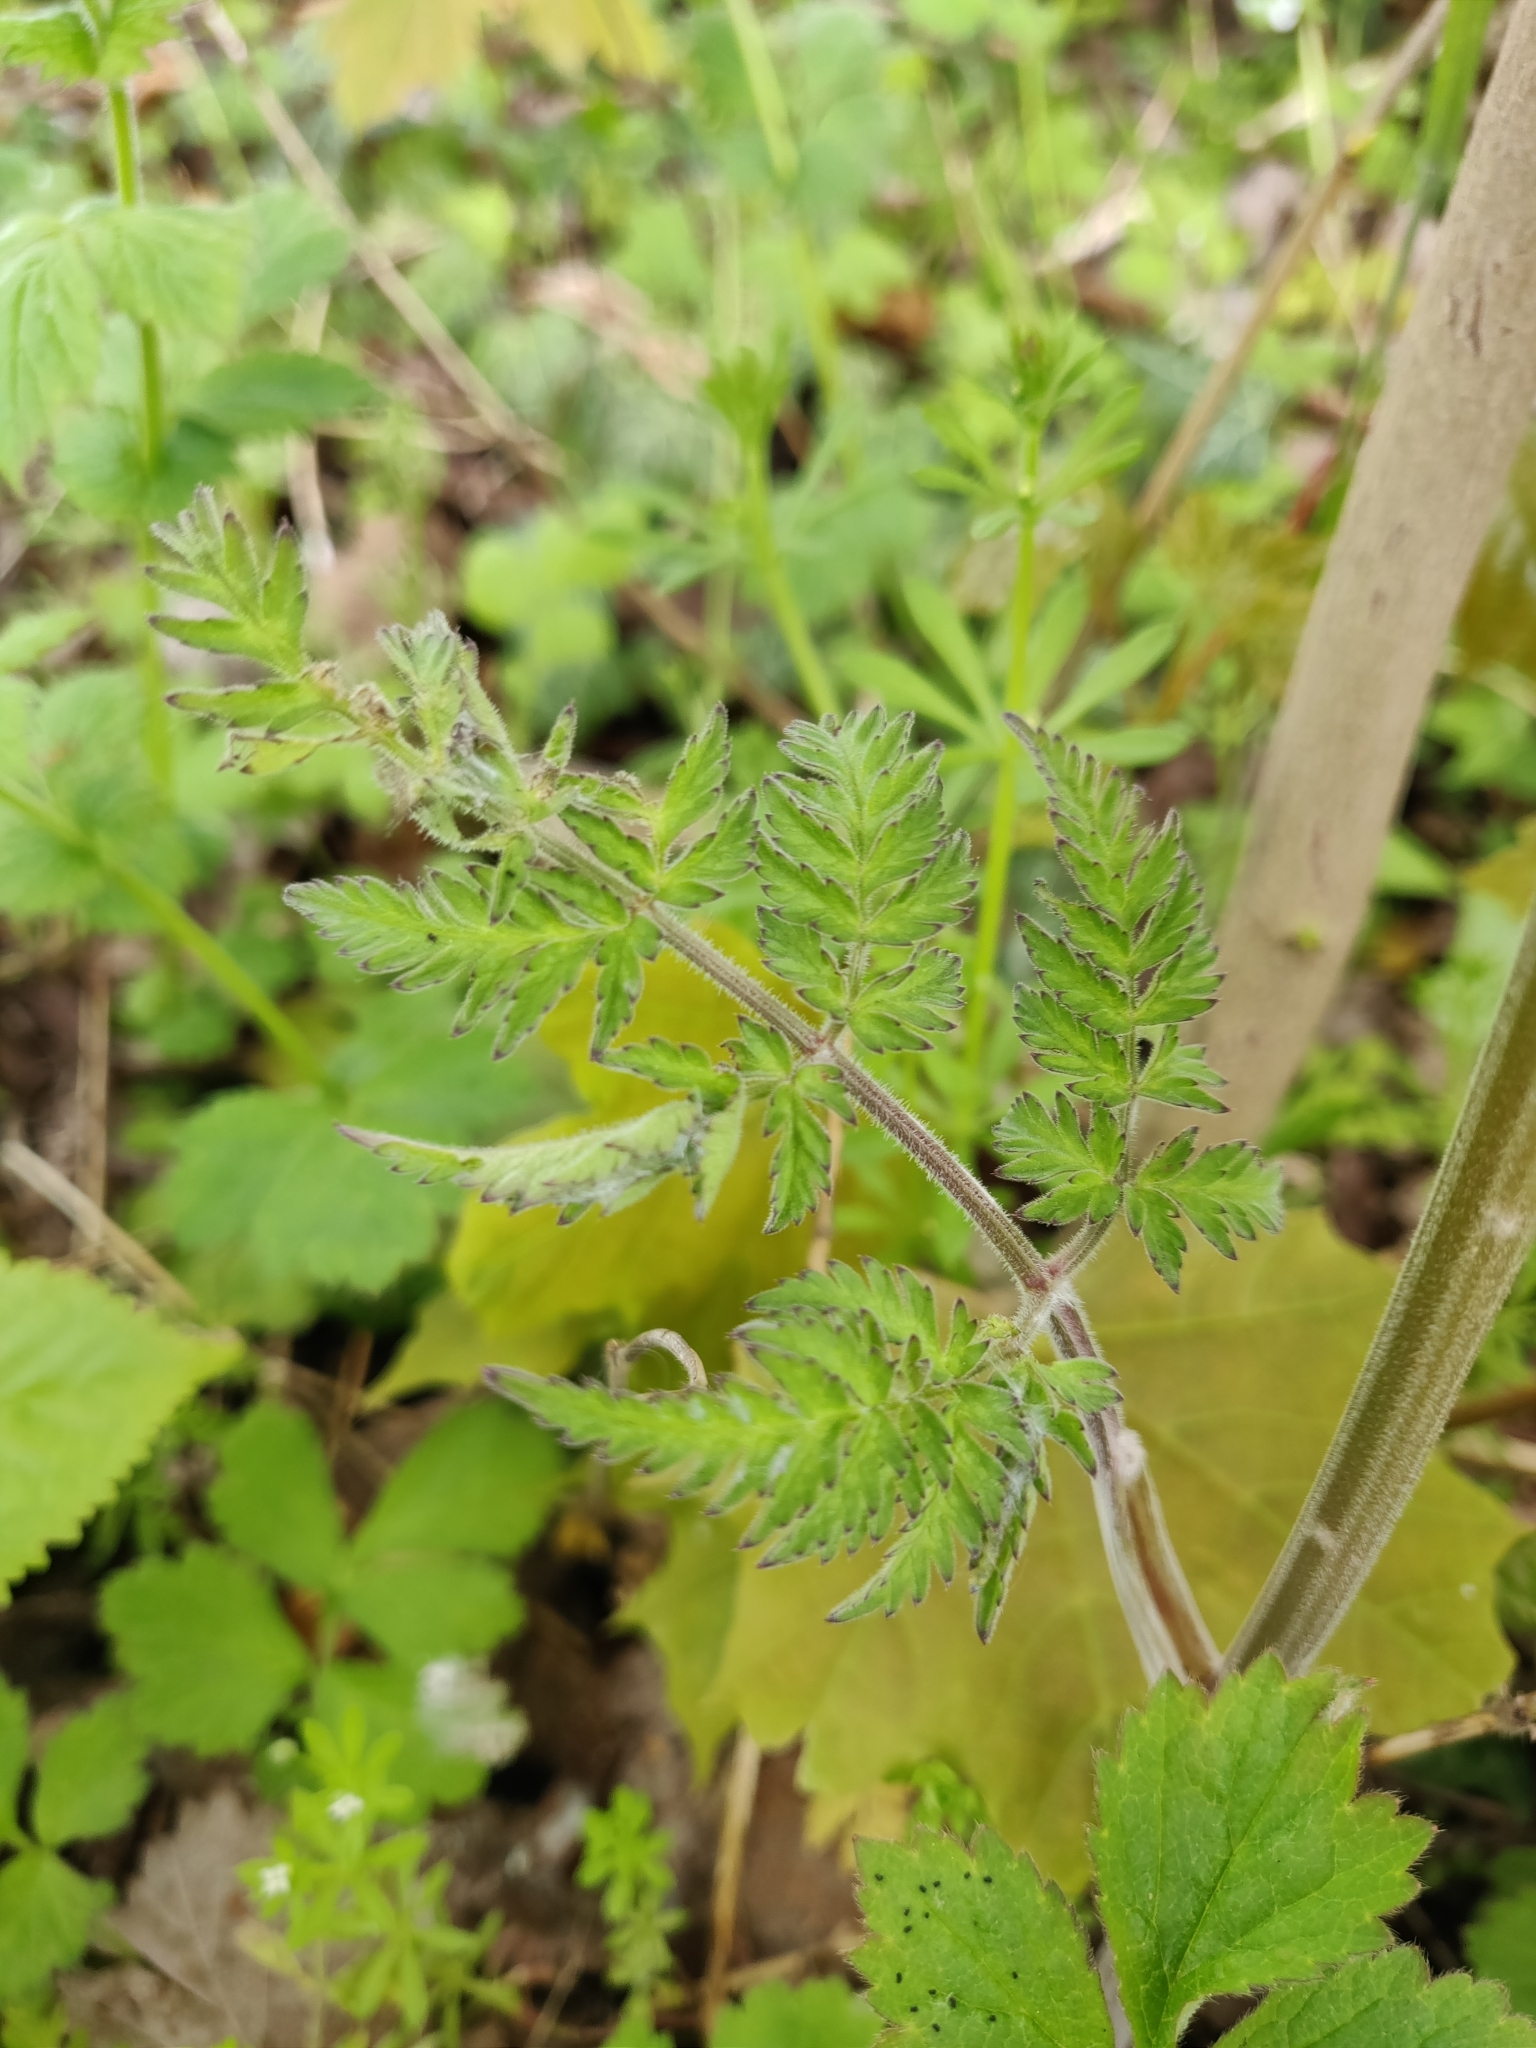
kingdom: Plantae
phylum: Tracheophyta
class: Magnoliopsida
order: Apiales
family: Apiaceae
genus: Anthriscus
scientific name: Anthriscus sylvestris
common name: Cow parsley
